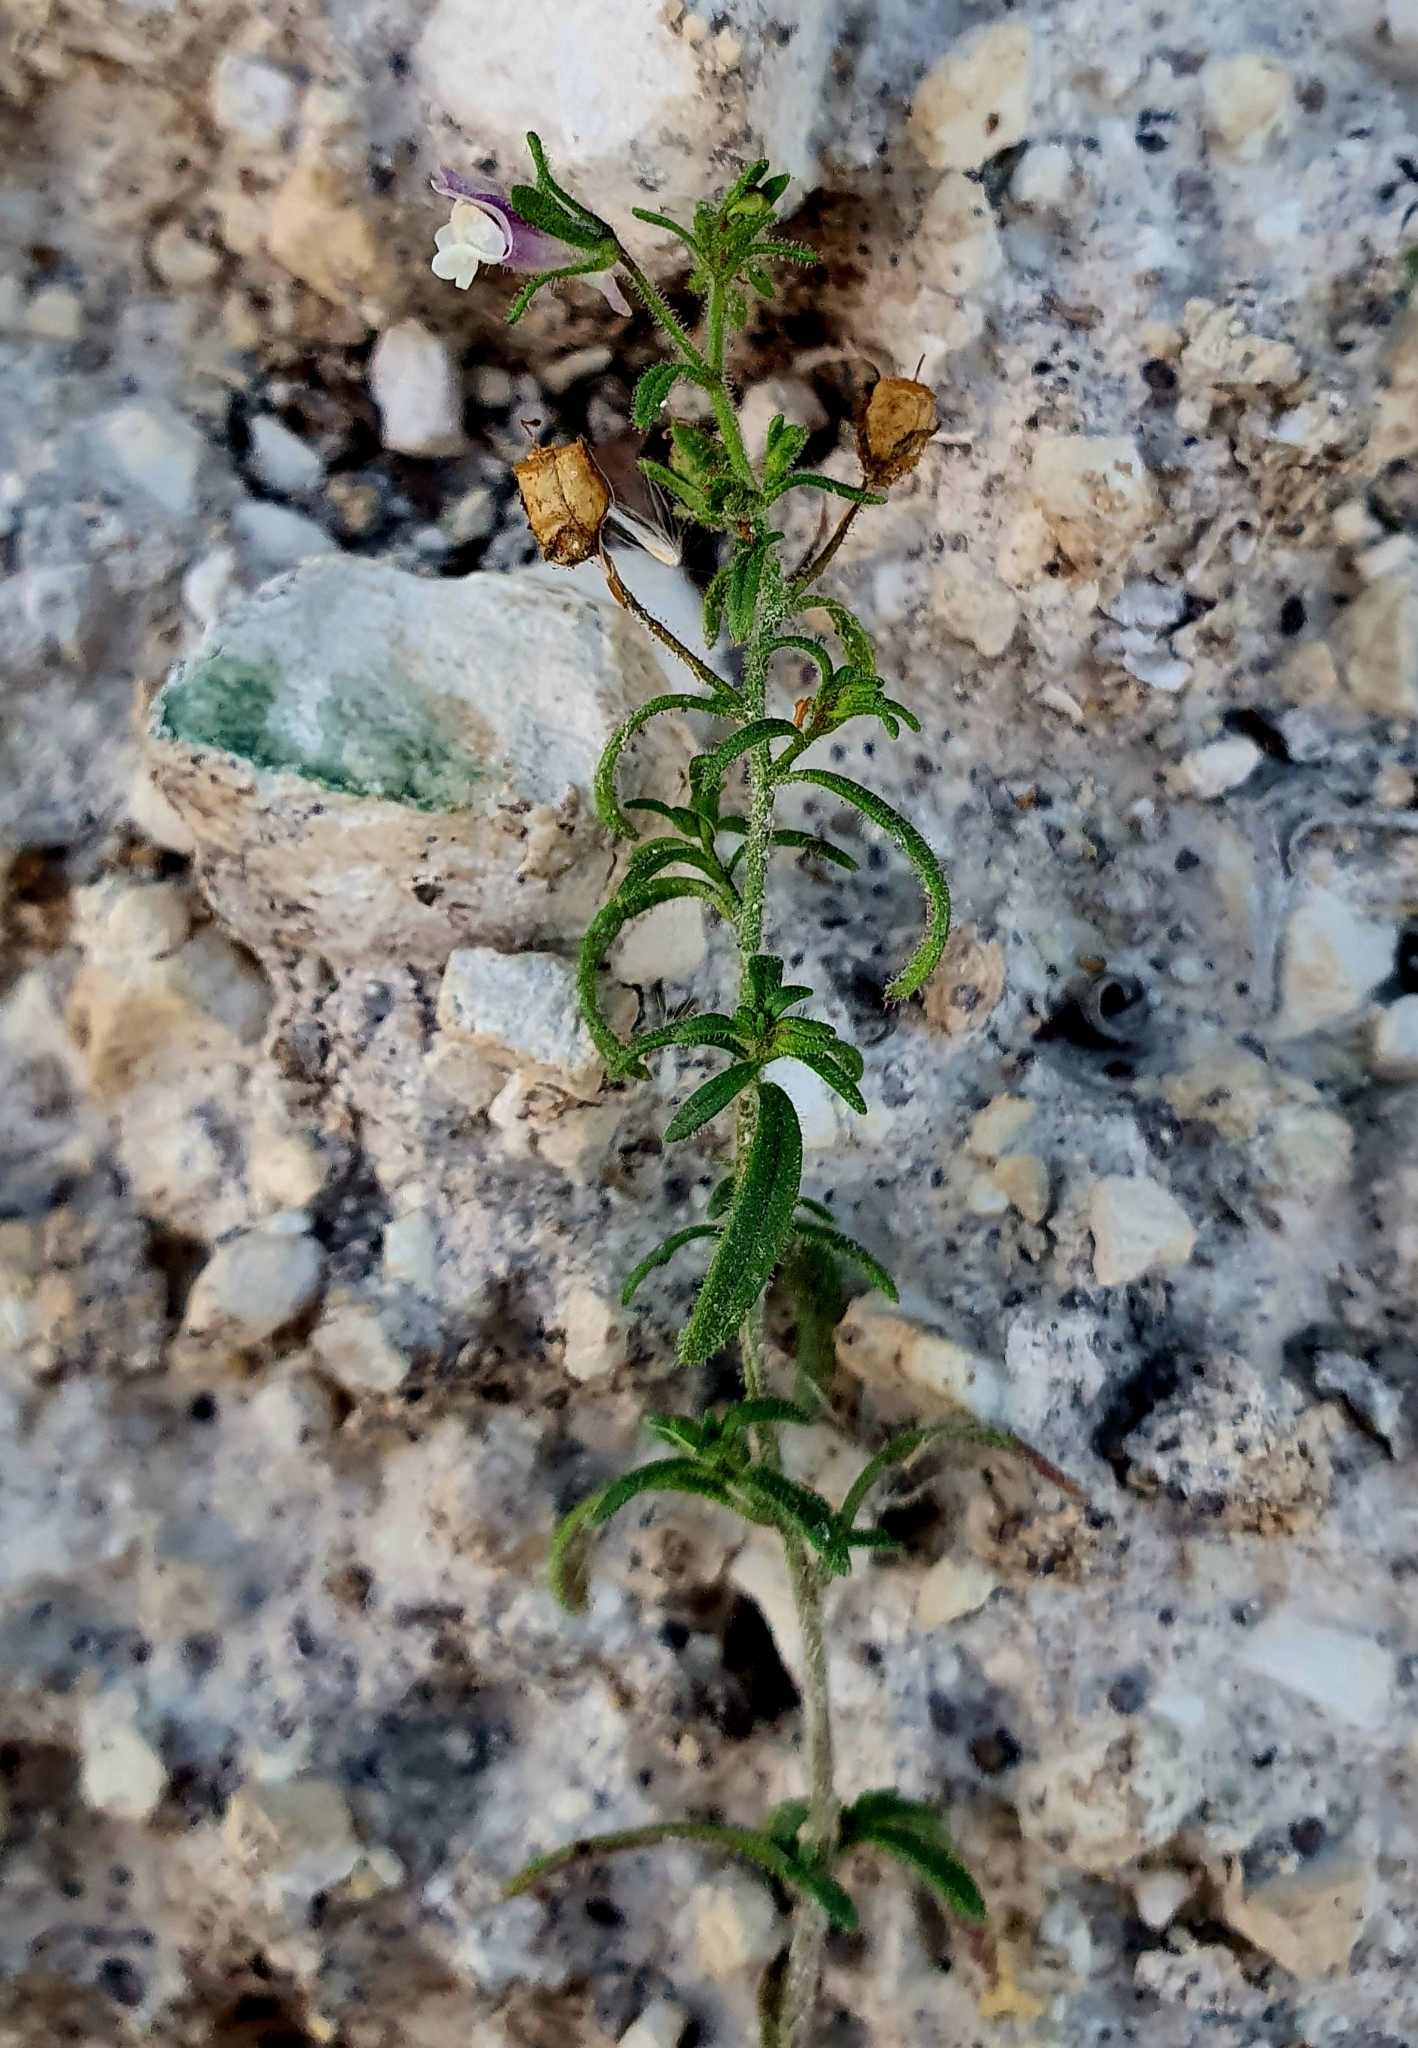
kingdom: Plantae
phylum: Tracheophyta
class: Magnoliopsida
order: Lamiales
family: Plantaginaceae
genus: Chaenorhinum
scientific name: Chaenorhinum minus
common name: Dwarf snapdragon
